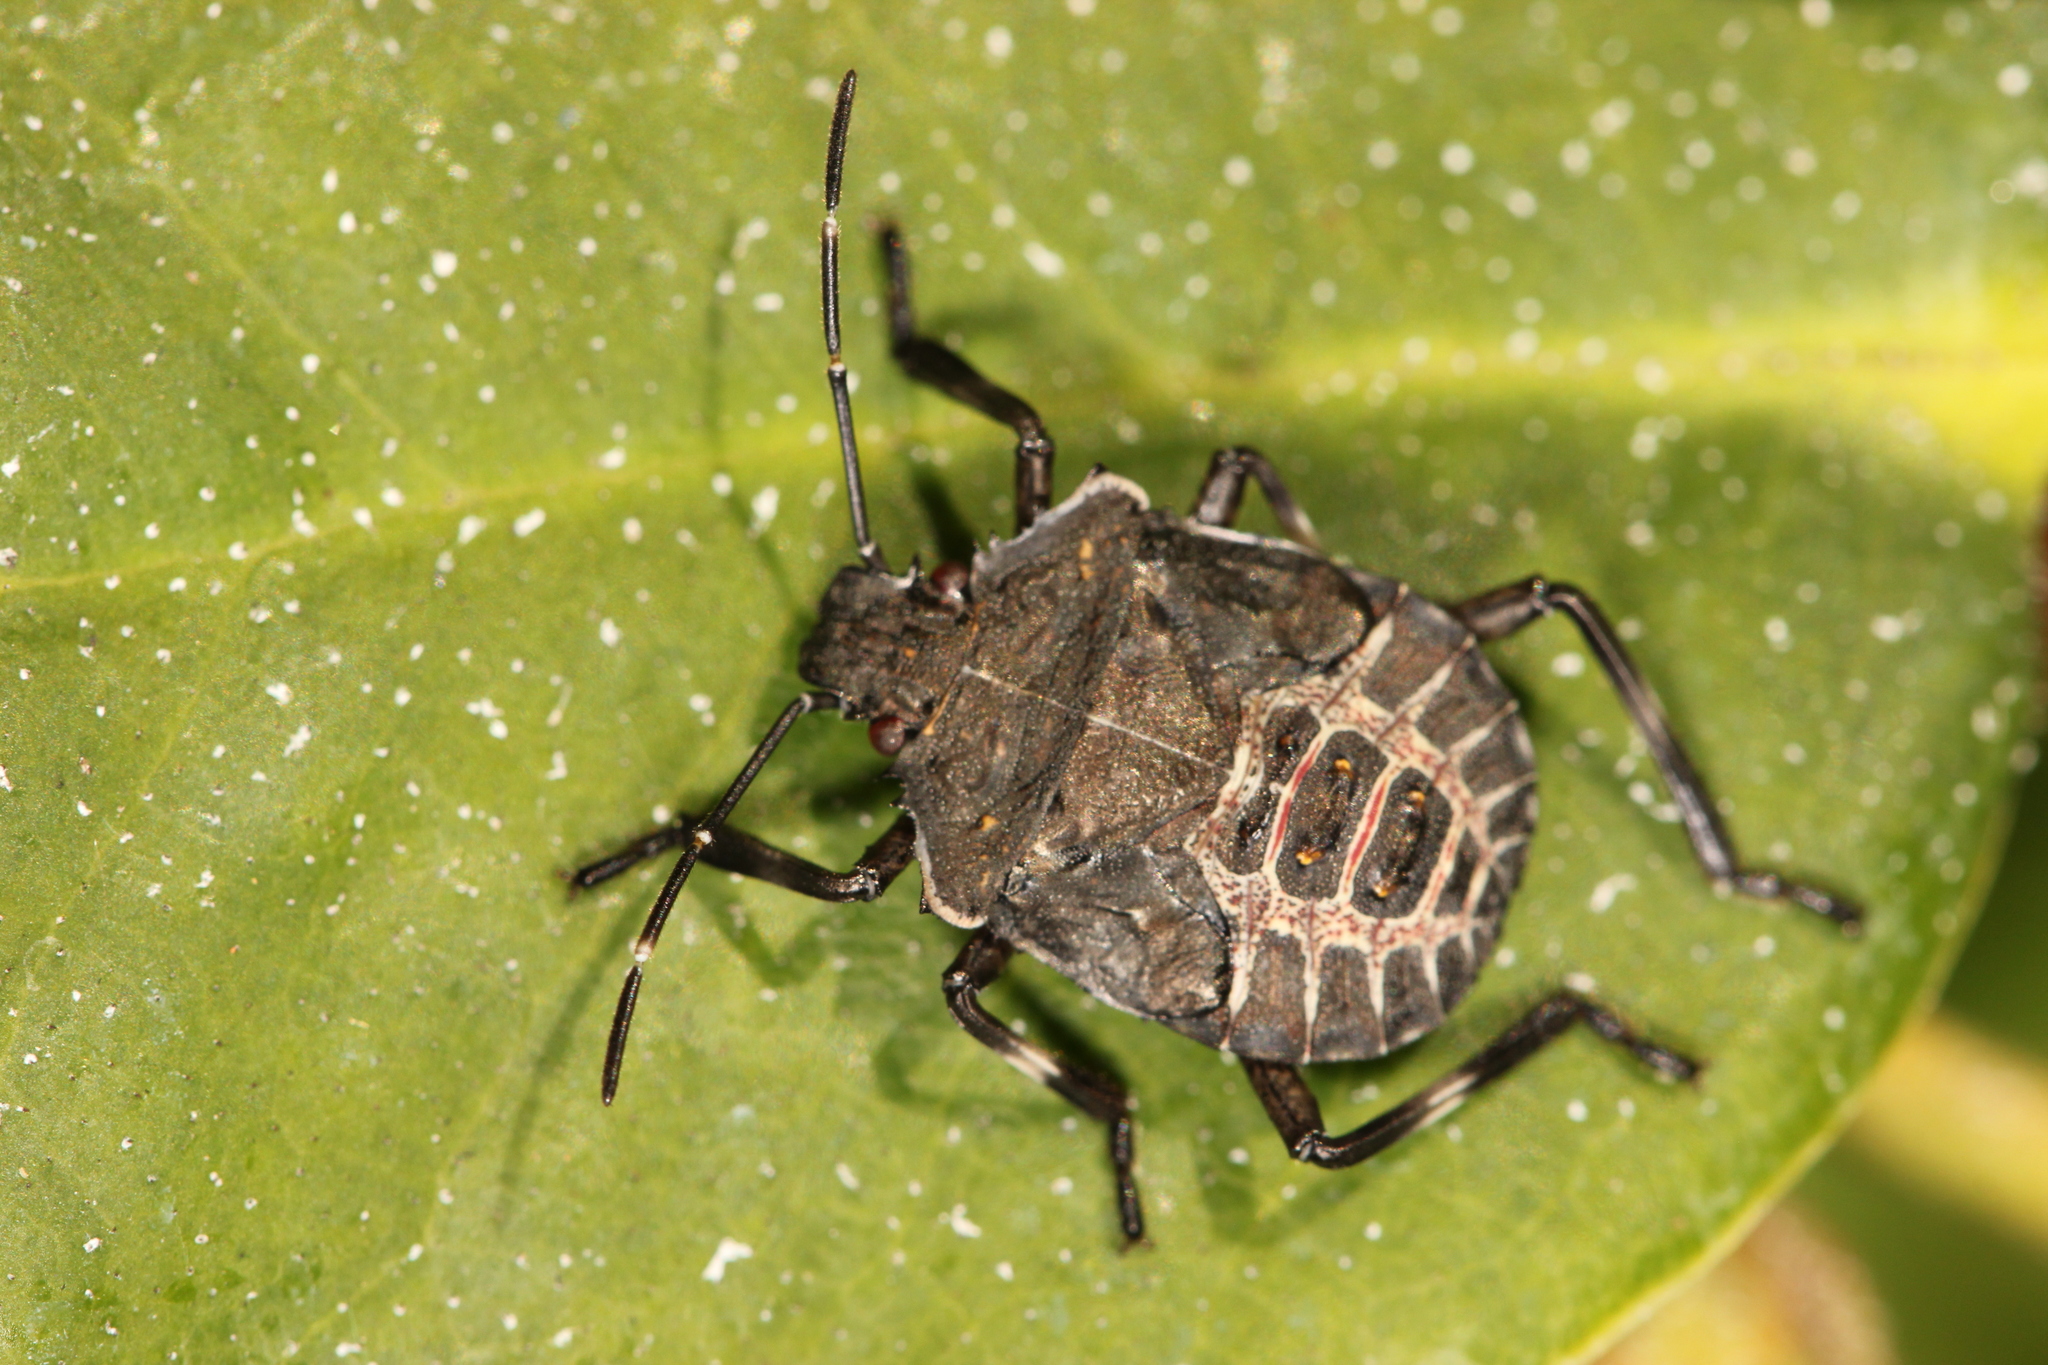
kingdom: Animalia
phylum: Arthropoda
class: Insecta
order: Hemiptera
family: Pentatomidae
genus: Halyomorpha
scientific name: Halyomorpha halys
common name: Brown marmorated stink bug
